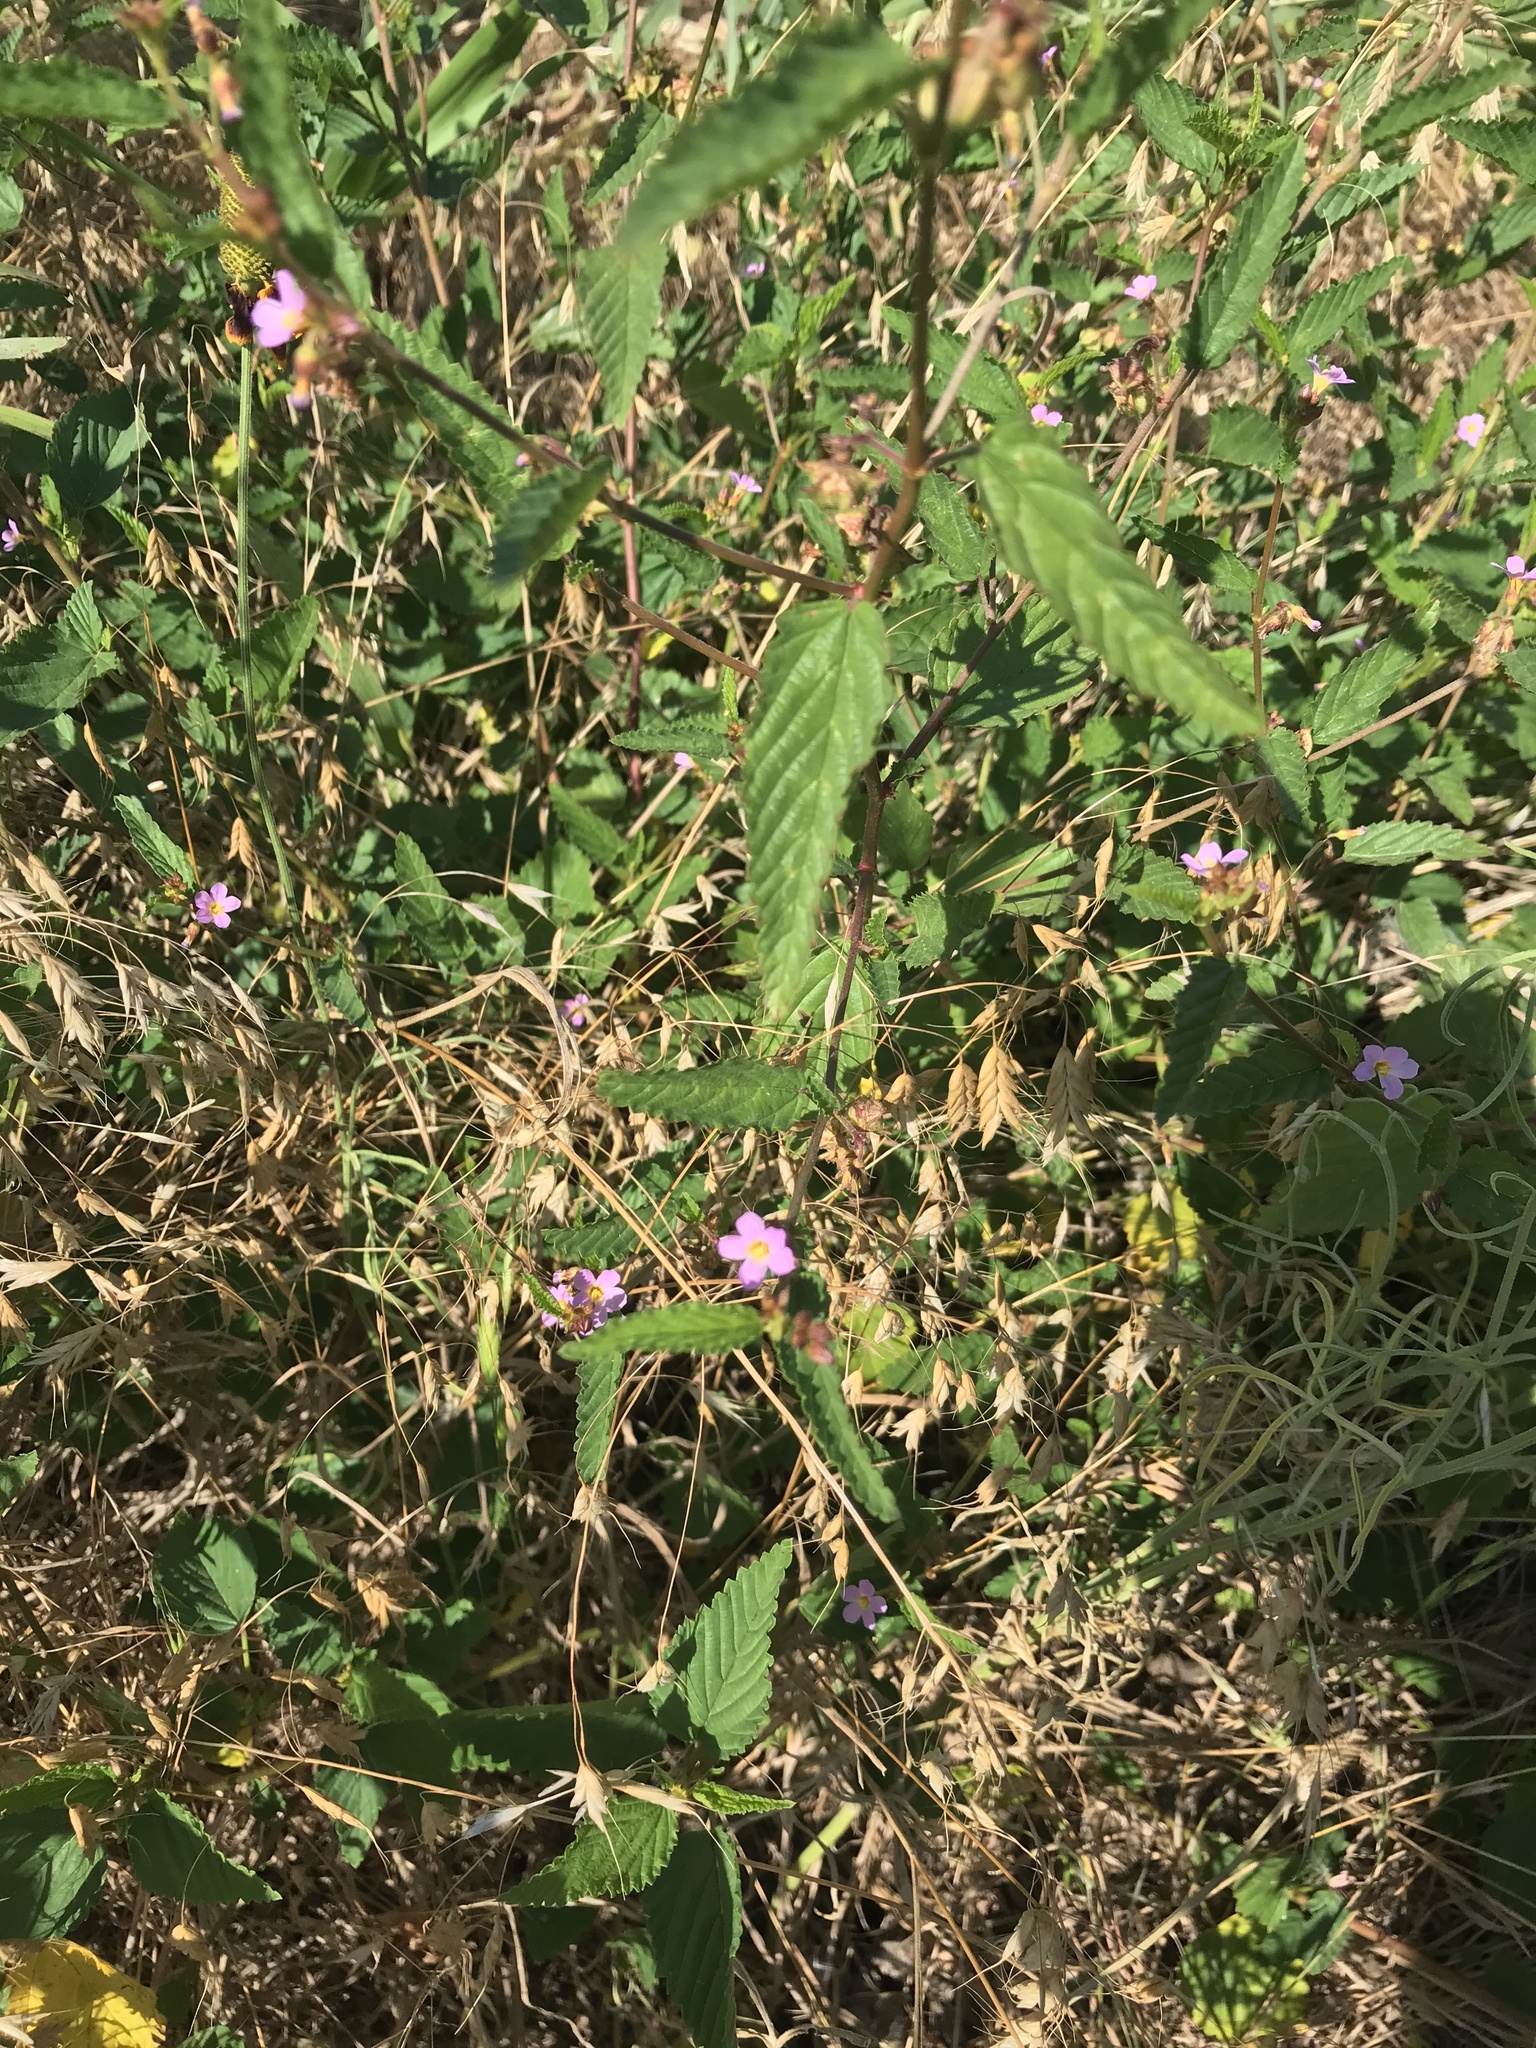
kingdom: Plantae
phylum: Tracheophyta
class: Magnoliopsida
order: Malvales
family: Malvaceae
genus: Melochia
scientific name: Melochia pyramidata
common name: Pyramidflower
